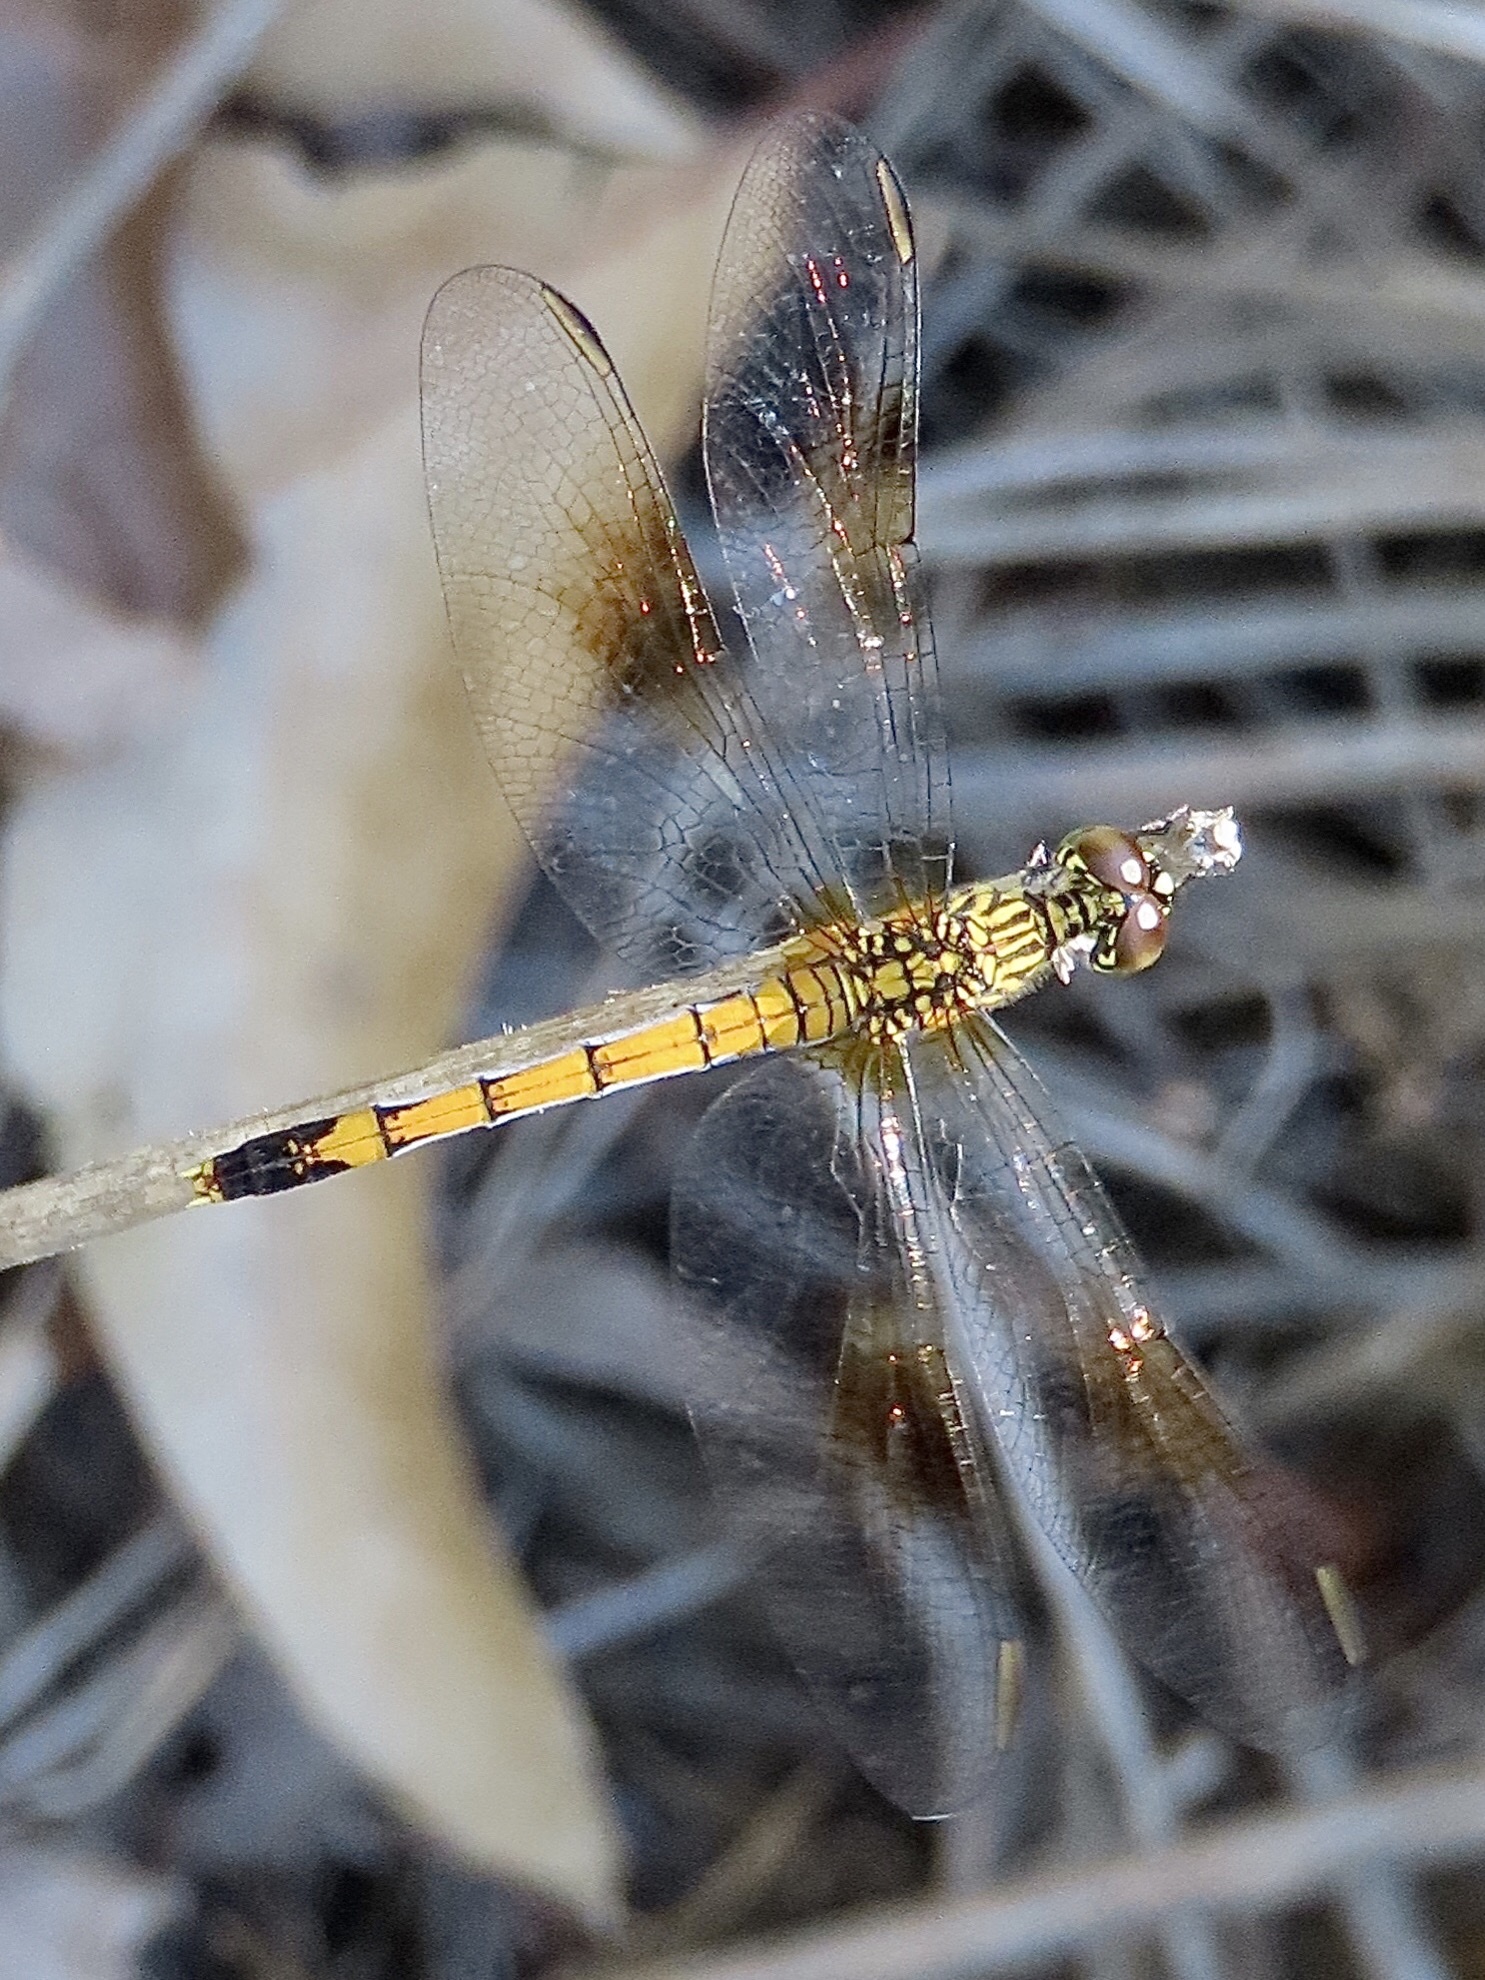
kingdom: Animalia
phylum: Arthropoda
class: Insecta
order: Odonata
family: Libellulidae
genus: Erythrodiplax
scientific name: Erythrodiplax berenice
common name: Seaside dragonlet
